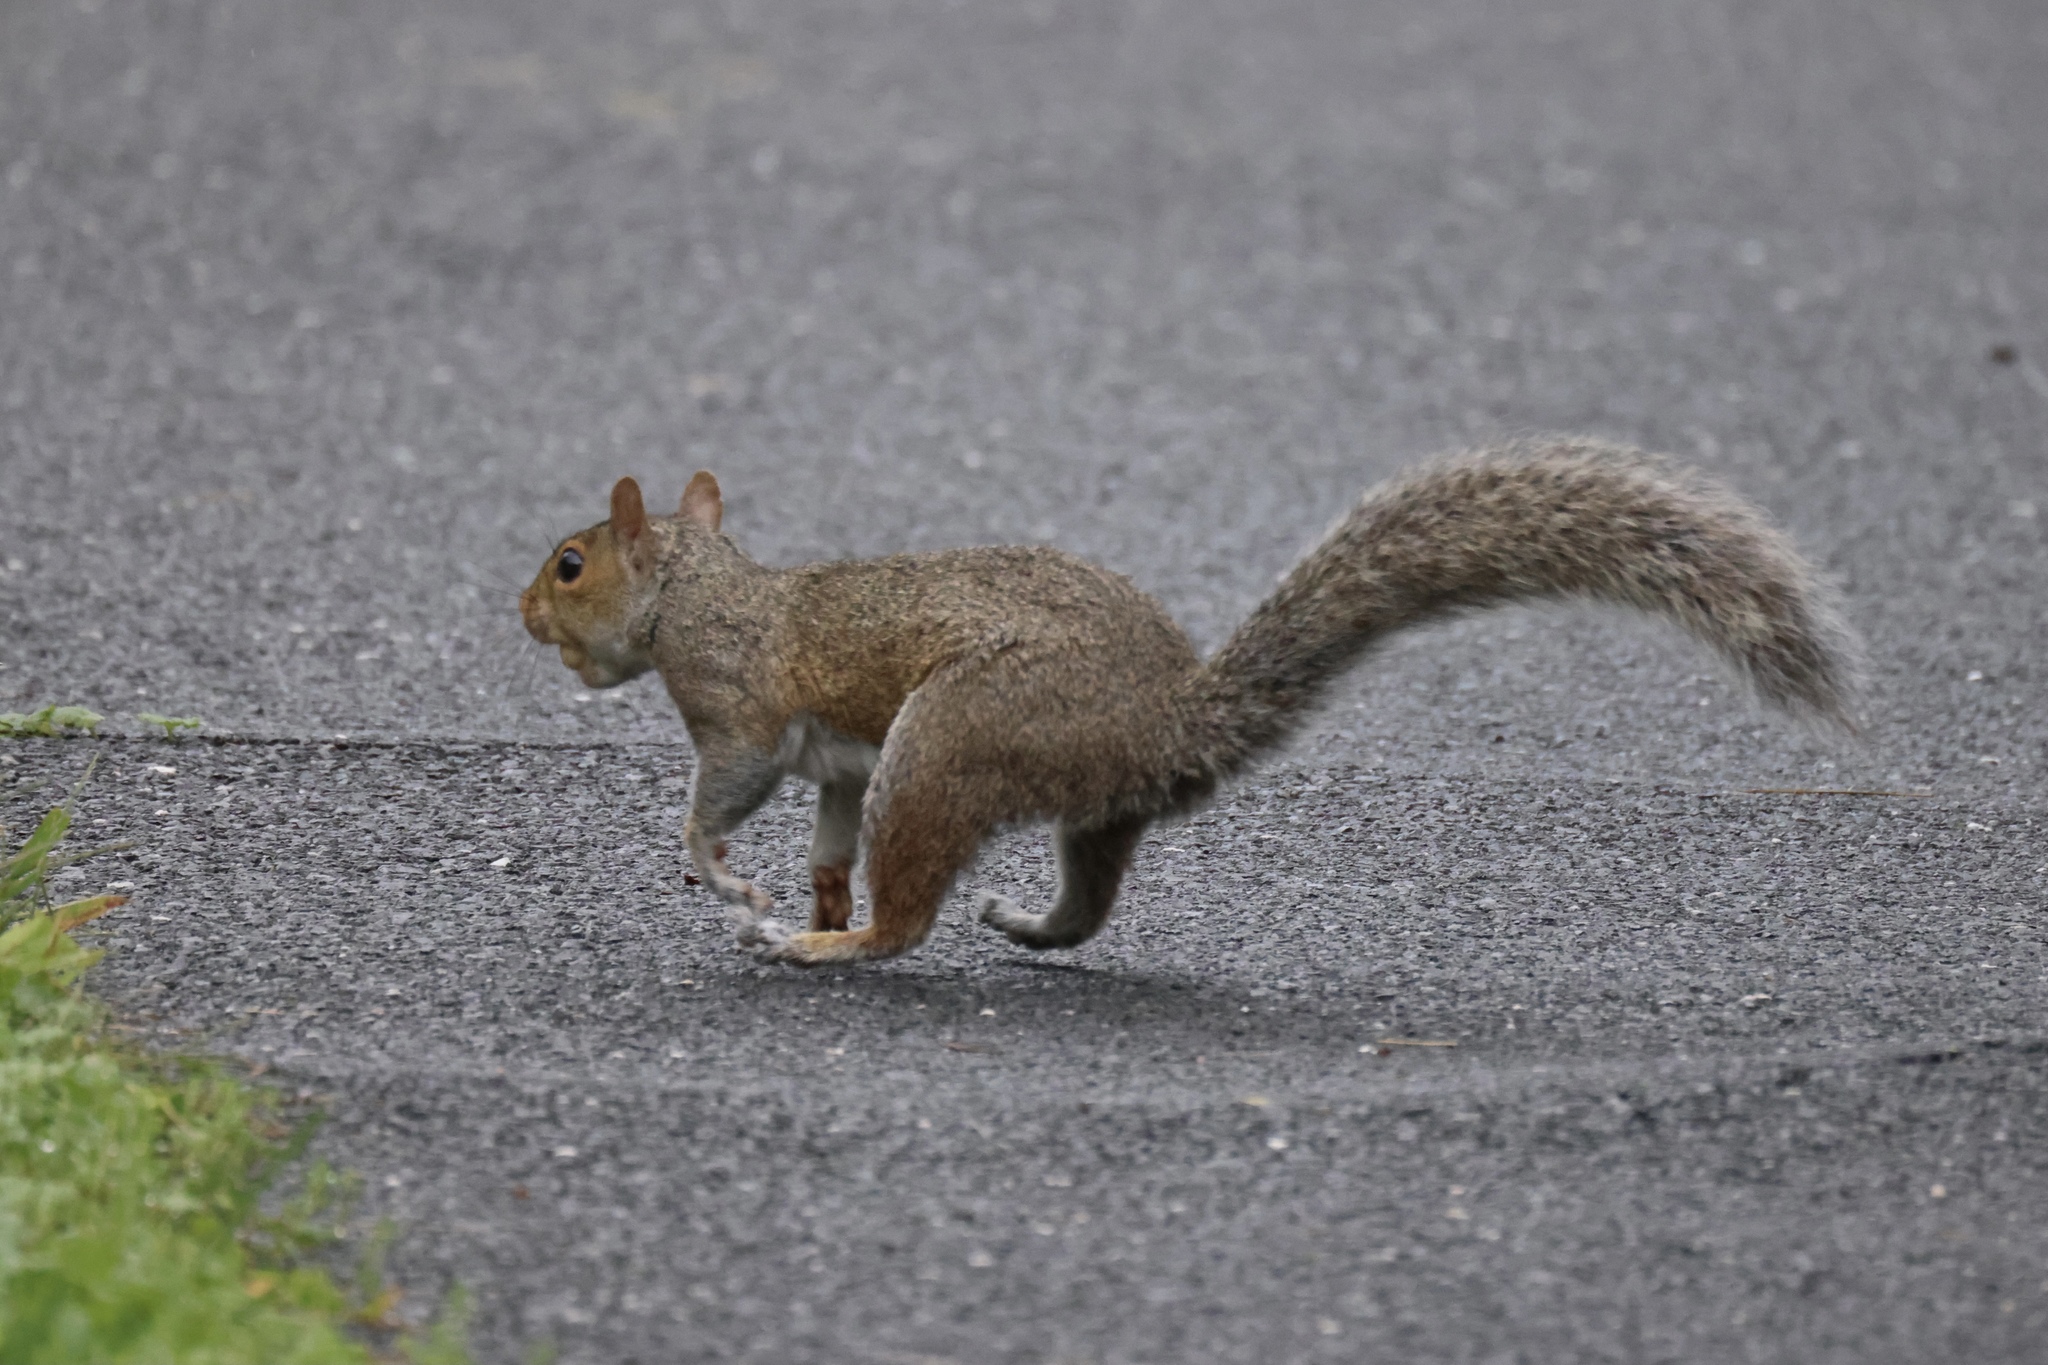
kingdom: Animalia
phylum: Chordata
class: Mammalia
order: Rodentia
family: Sciuridae
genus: Sciurus
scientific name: Sciurus carolinensis
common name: Eastern gray squirrel
